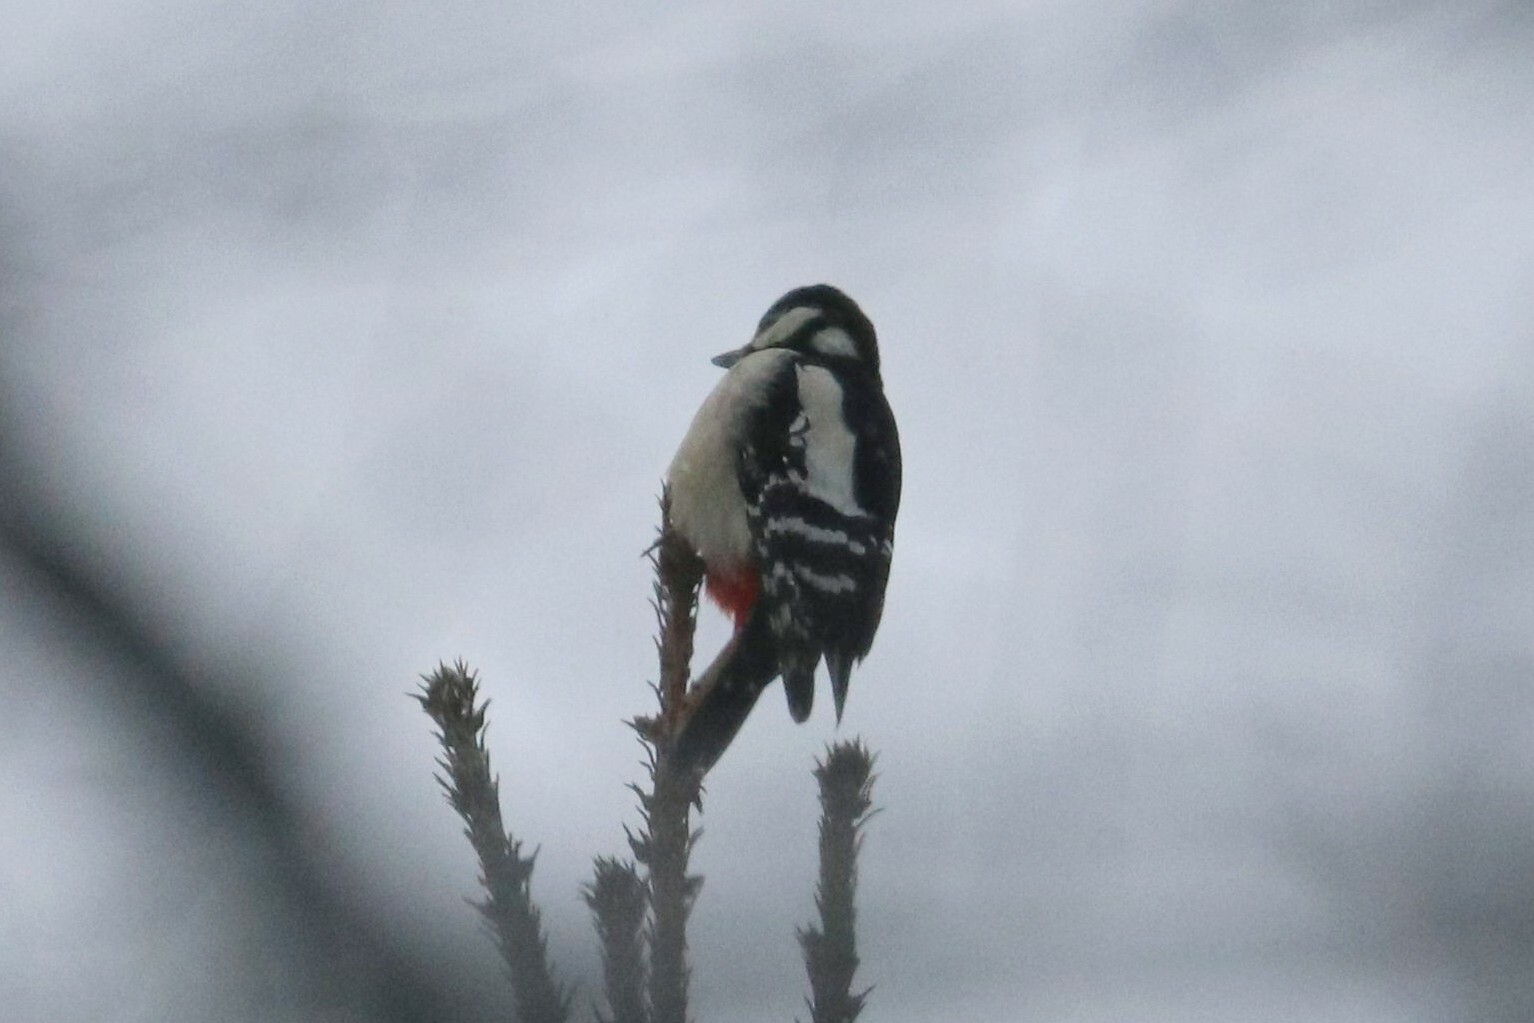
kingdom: Animalia
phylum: Chordata
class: Aves
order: Piciformes
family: Picidae
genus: Dendrocopos
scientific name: Dendrocopos major
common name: Great spotted woodpecker
